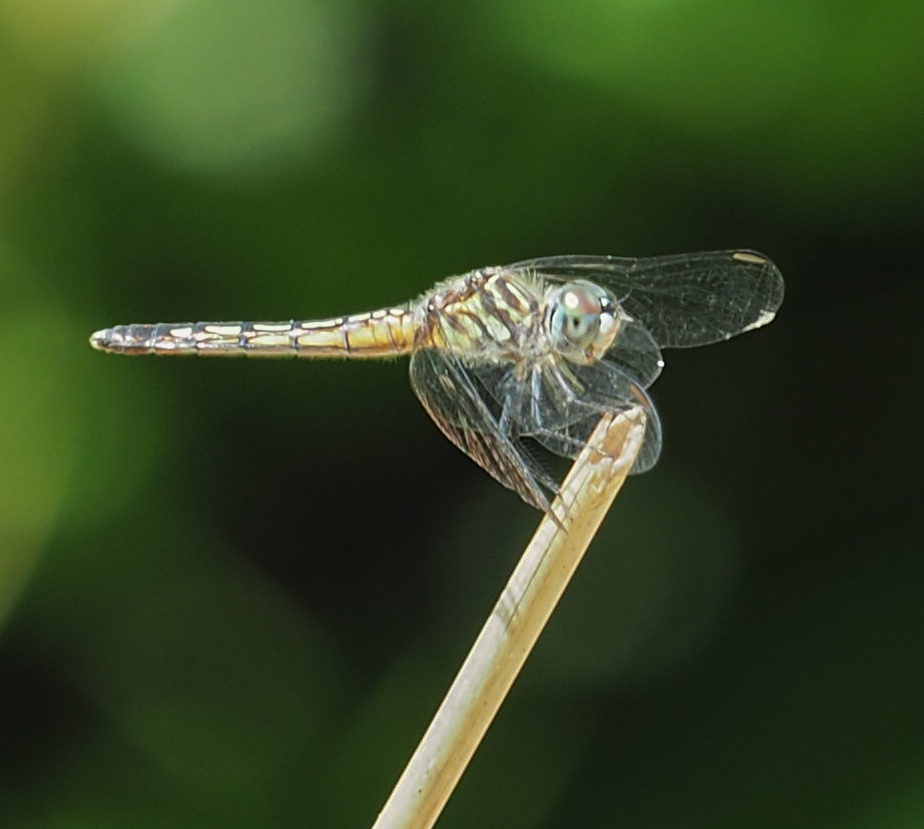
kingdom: Animalia
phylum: Arthropoda
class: Insecta
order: Odonata
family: Libellulidae
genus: Pachydiplax
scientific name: Pachydiplax longipennis
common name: Blue dasher
